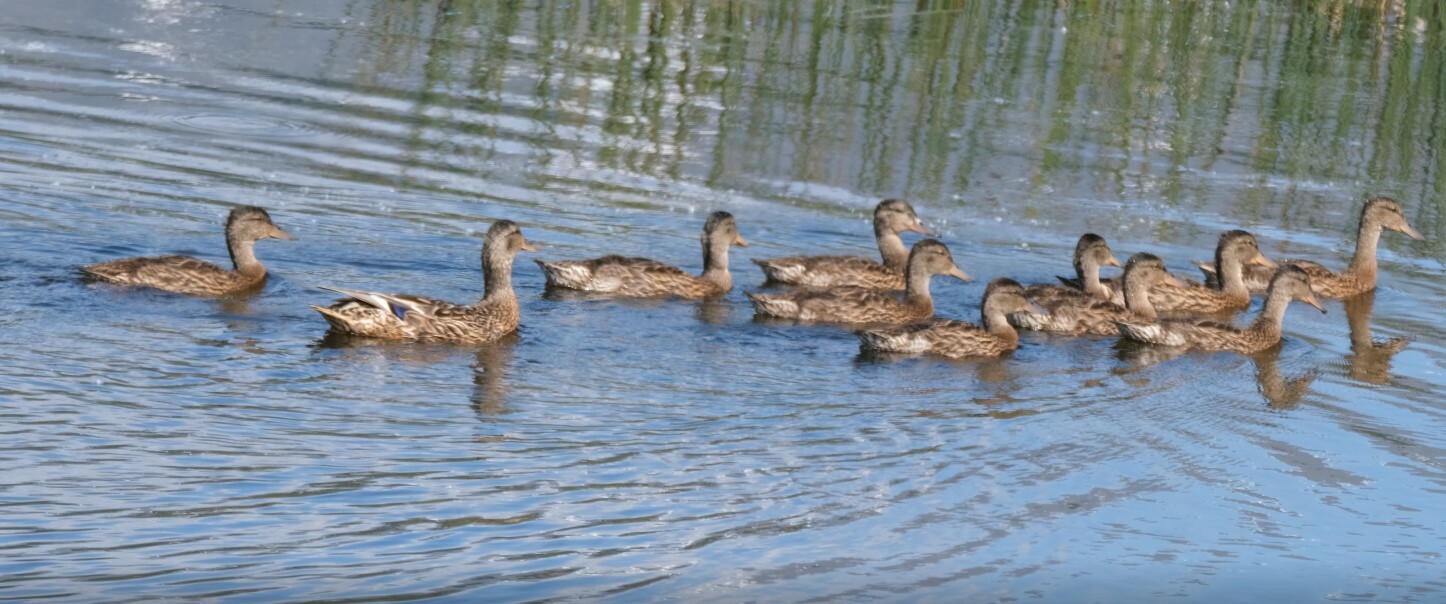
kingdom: Animalia
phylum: Chordata
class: Aves
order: Anseriformes
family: Anatidae
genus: Anas
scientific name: Anas platyrhynchos
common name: Mallard
